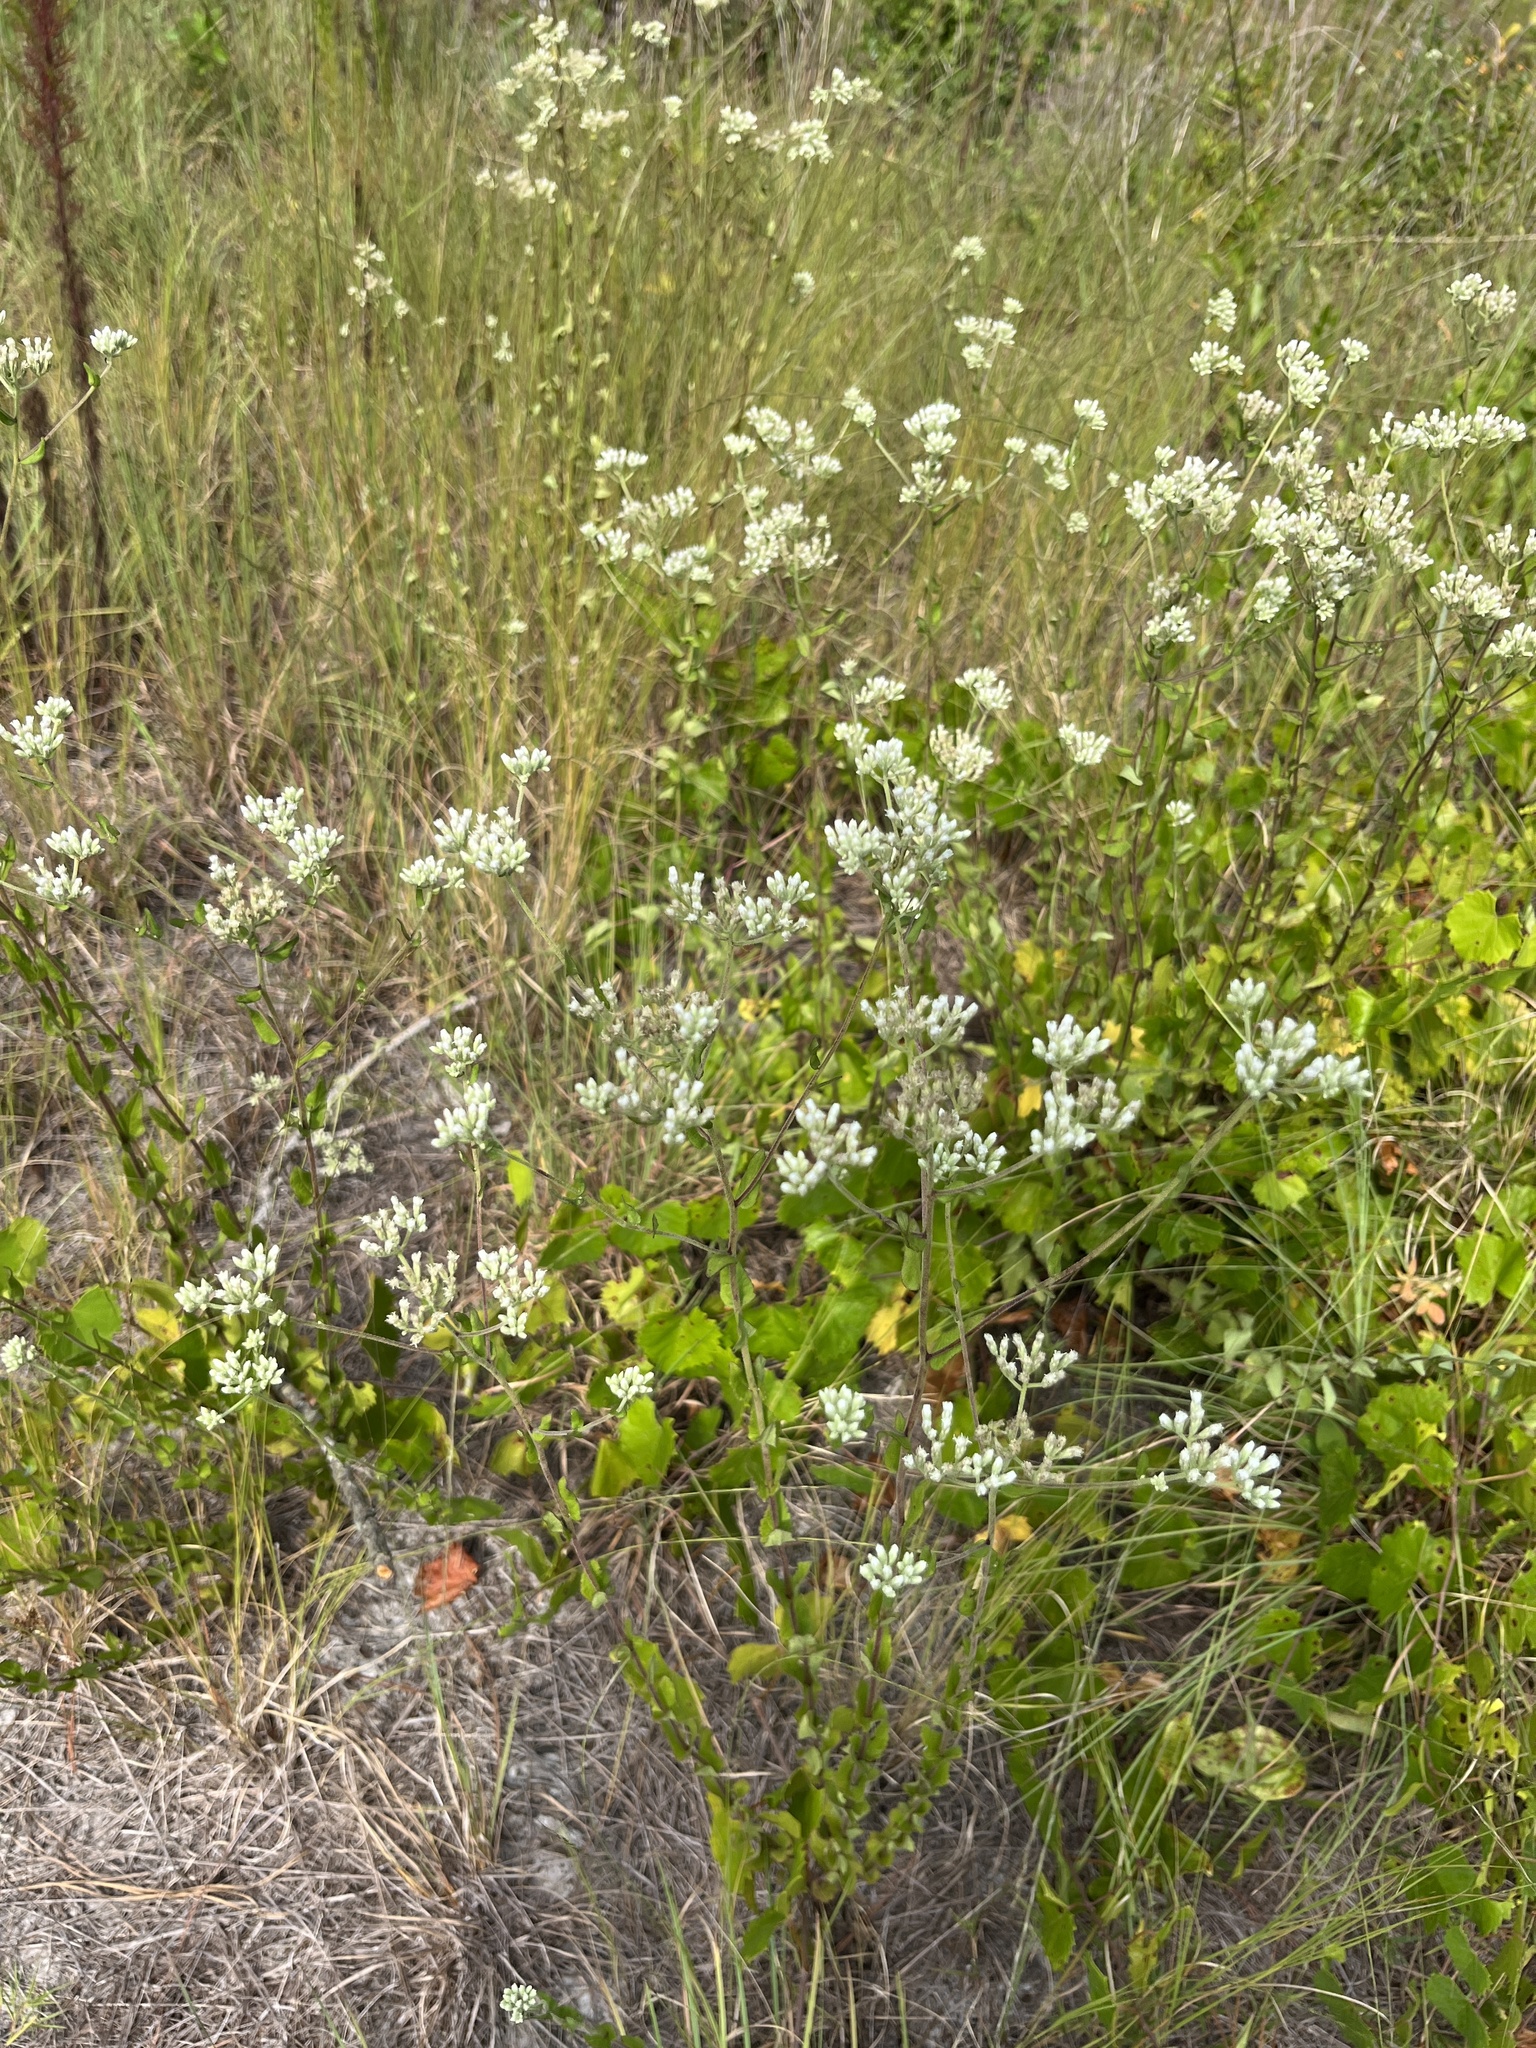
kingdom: Plantae
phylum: Tracheophyta
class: Magnoliopsida
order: Asterales
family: Asteraceae
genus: Eupatorium
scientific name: Eupatorium pilosum
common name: Rough boneset
